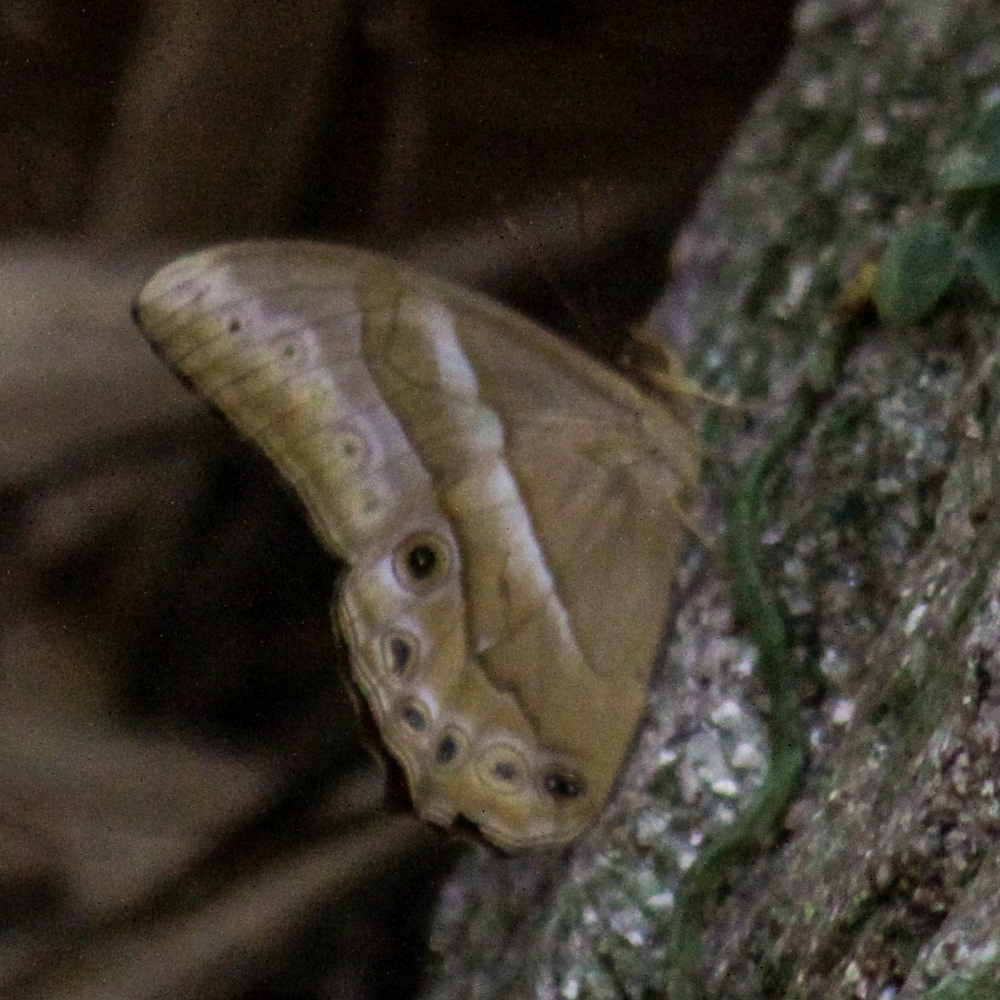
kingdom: Animalia
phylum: Arthropoda
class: Insecta
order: Lepidoptera
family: Nymphalidae
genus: Lethe
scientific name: Lethe mekara
